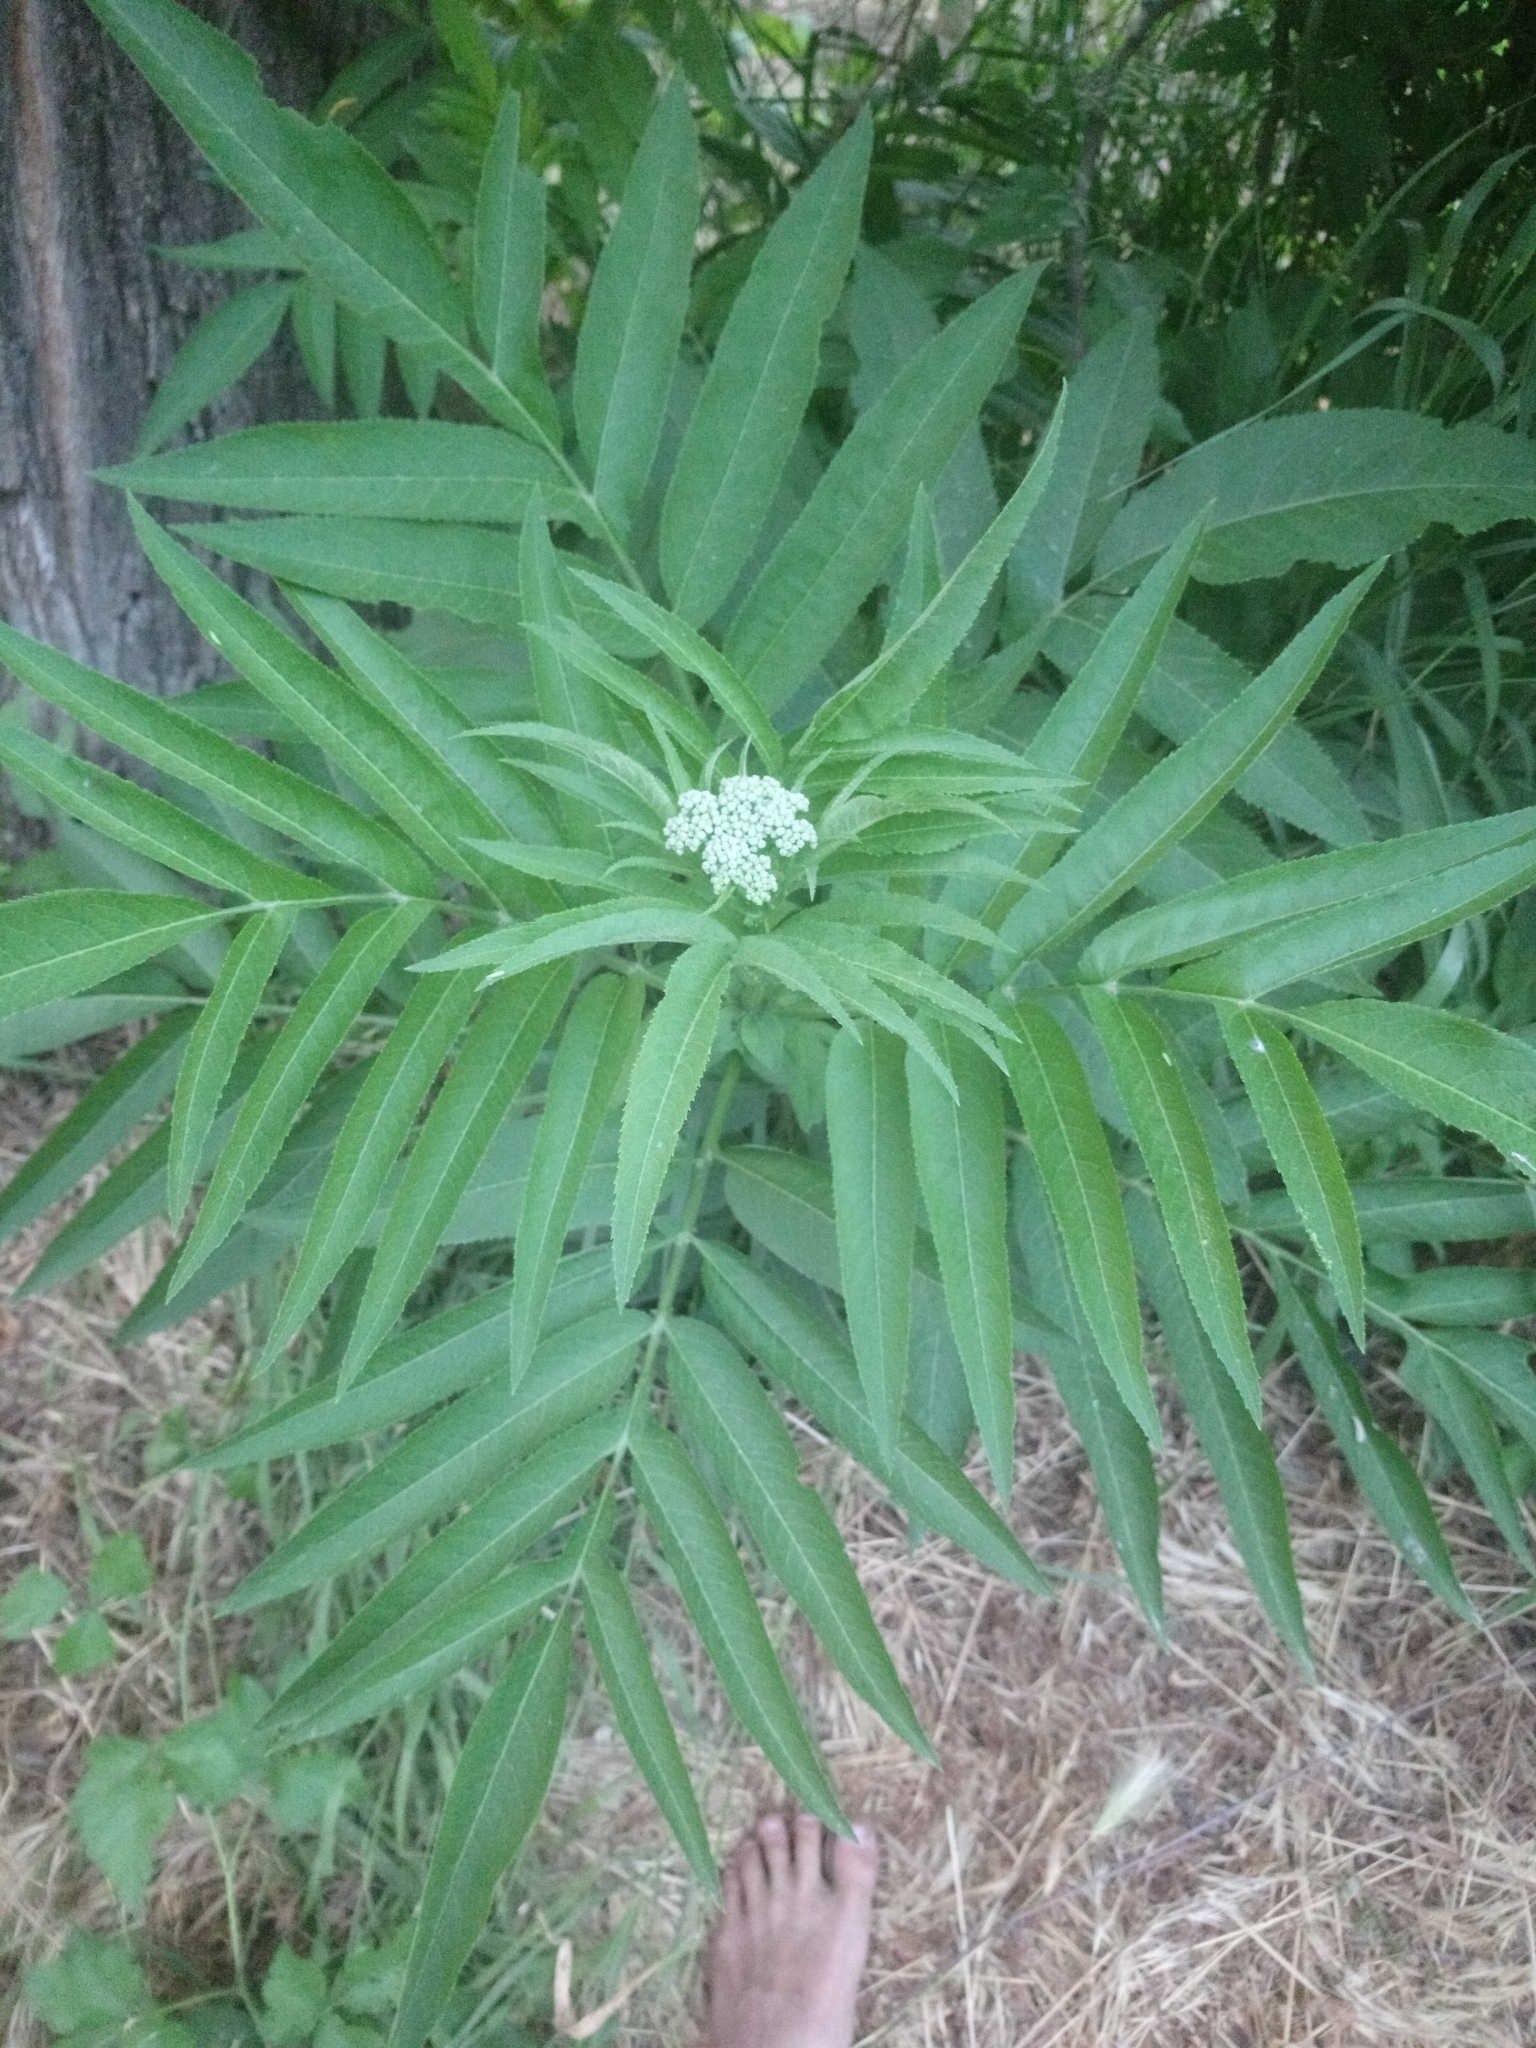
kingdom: Plantae
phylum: Tracheophyta
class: Magnoliopsida
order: Dipsacales
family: Viburnaceae
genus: Sambucus
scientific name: Sambucus ebulus
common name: Dwarf elder
